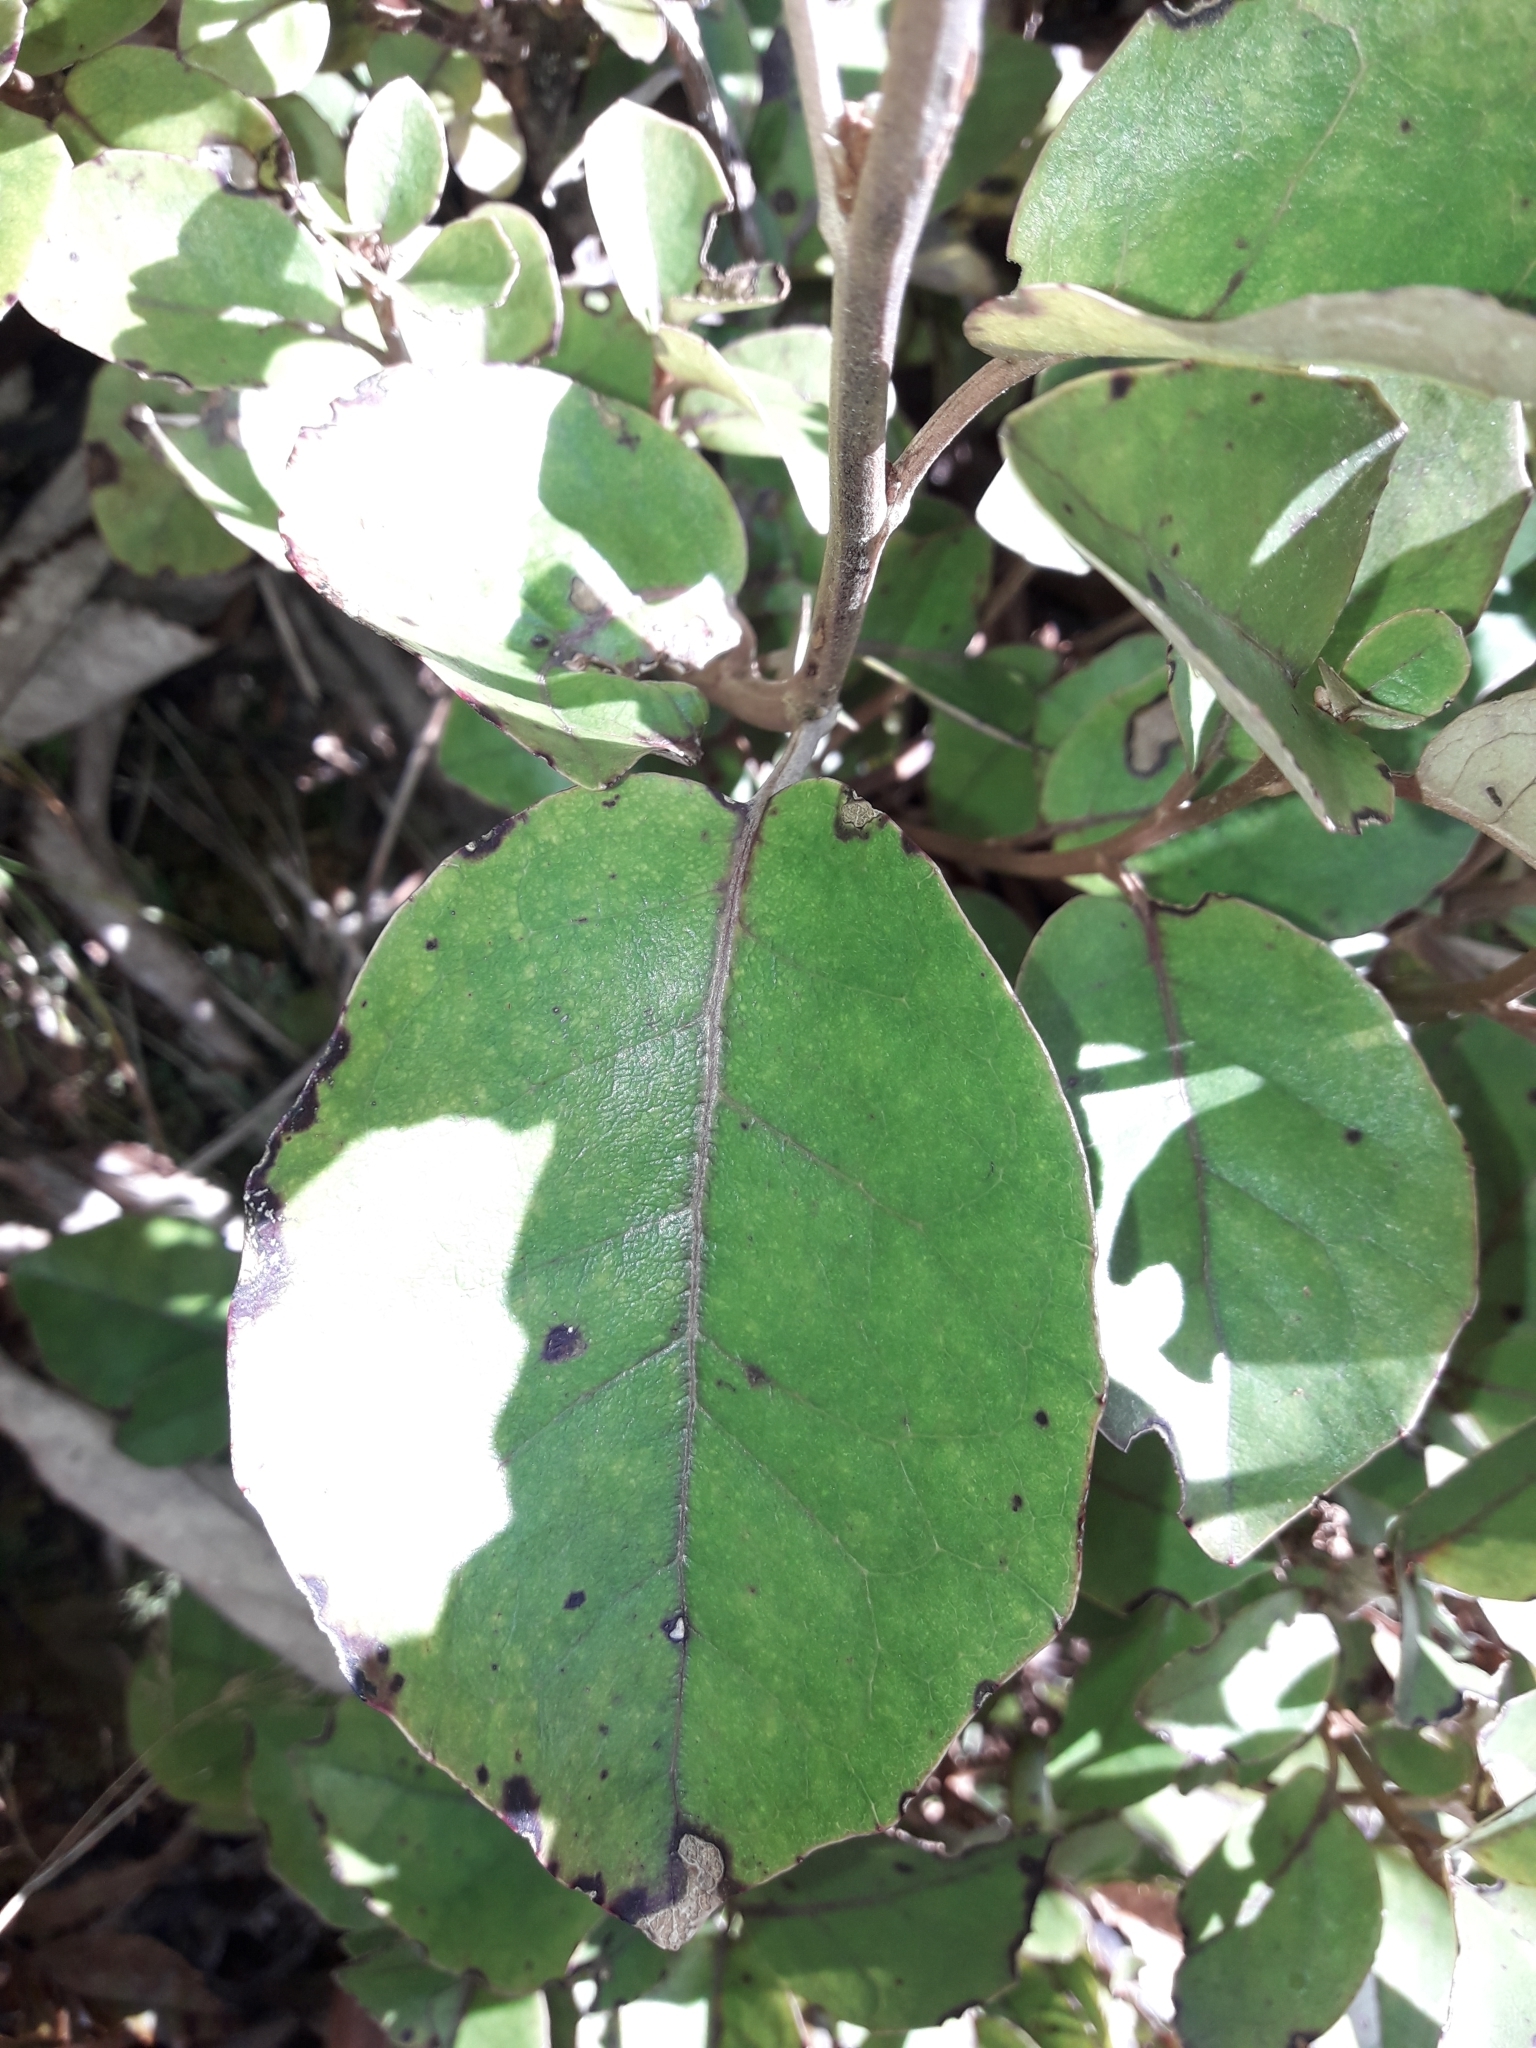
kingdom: Plantae
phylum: Tracheophyta
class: Magnoliopsida
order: Asterales
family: Asteraceae
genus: Olearia
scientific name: Olearia arborescens
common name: Glossy tree daisy
